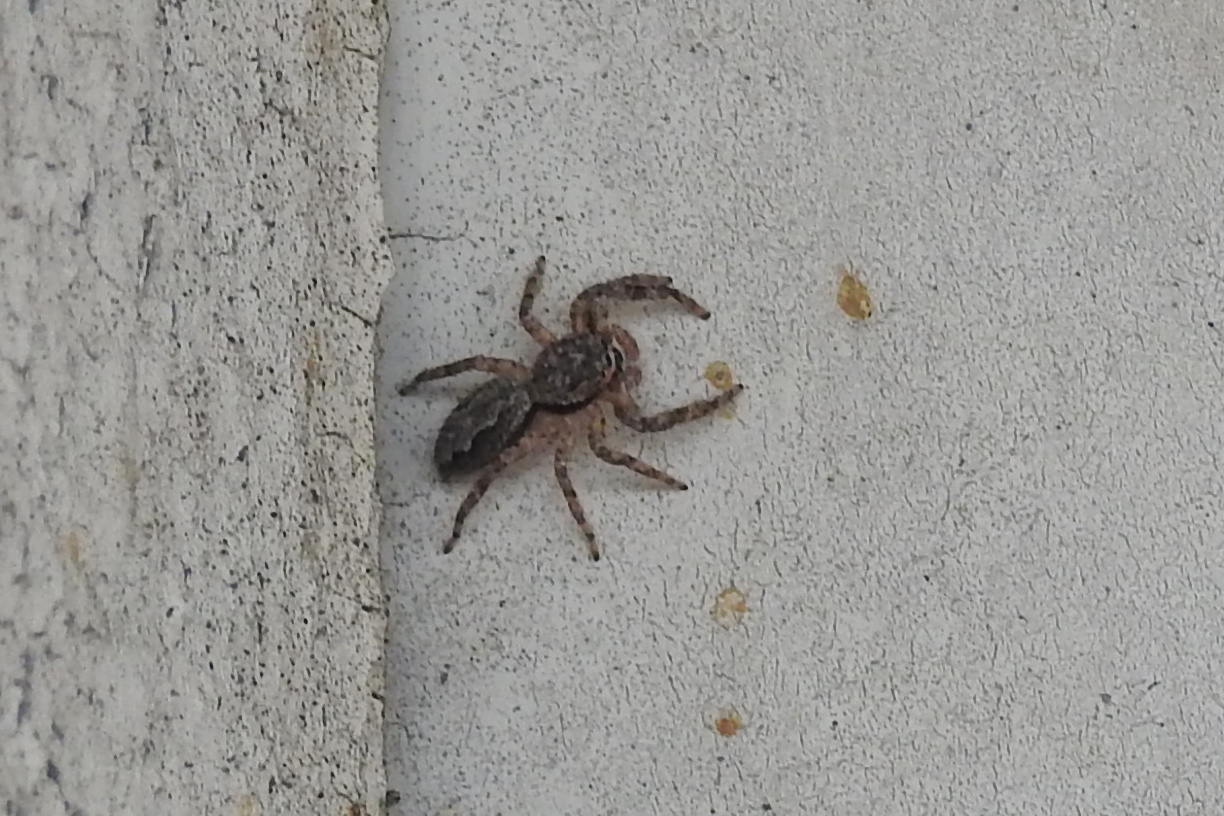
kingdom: Animalia
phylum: Arthropoda
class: Arachnida
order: Araneae
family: Salticidae
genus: Platycryptus
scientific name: Platycryptus undatus
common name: Tan jumping spider
